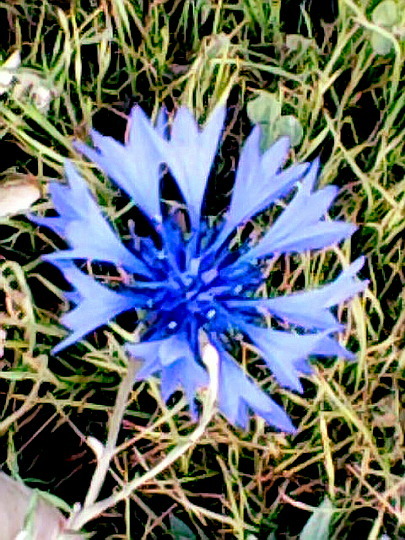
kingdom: Plantae
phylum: Tracheophyta
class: Magnoliopsida
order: Asterales
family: Asteraceae
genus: Centaurea
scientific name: Centaurea cyanus
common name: Cornflower
